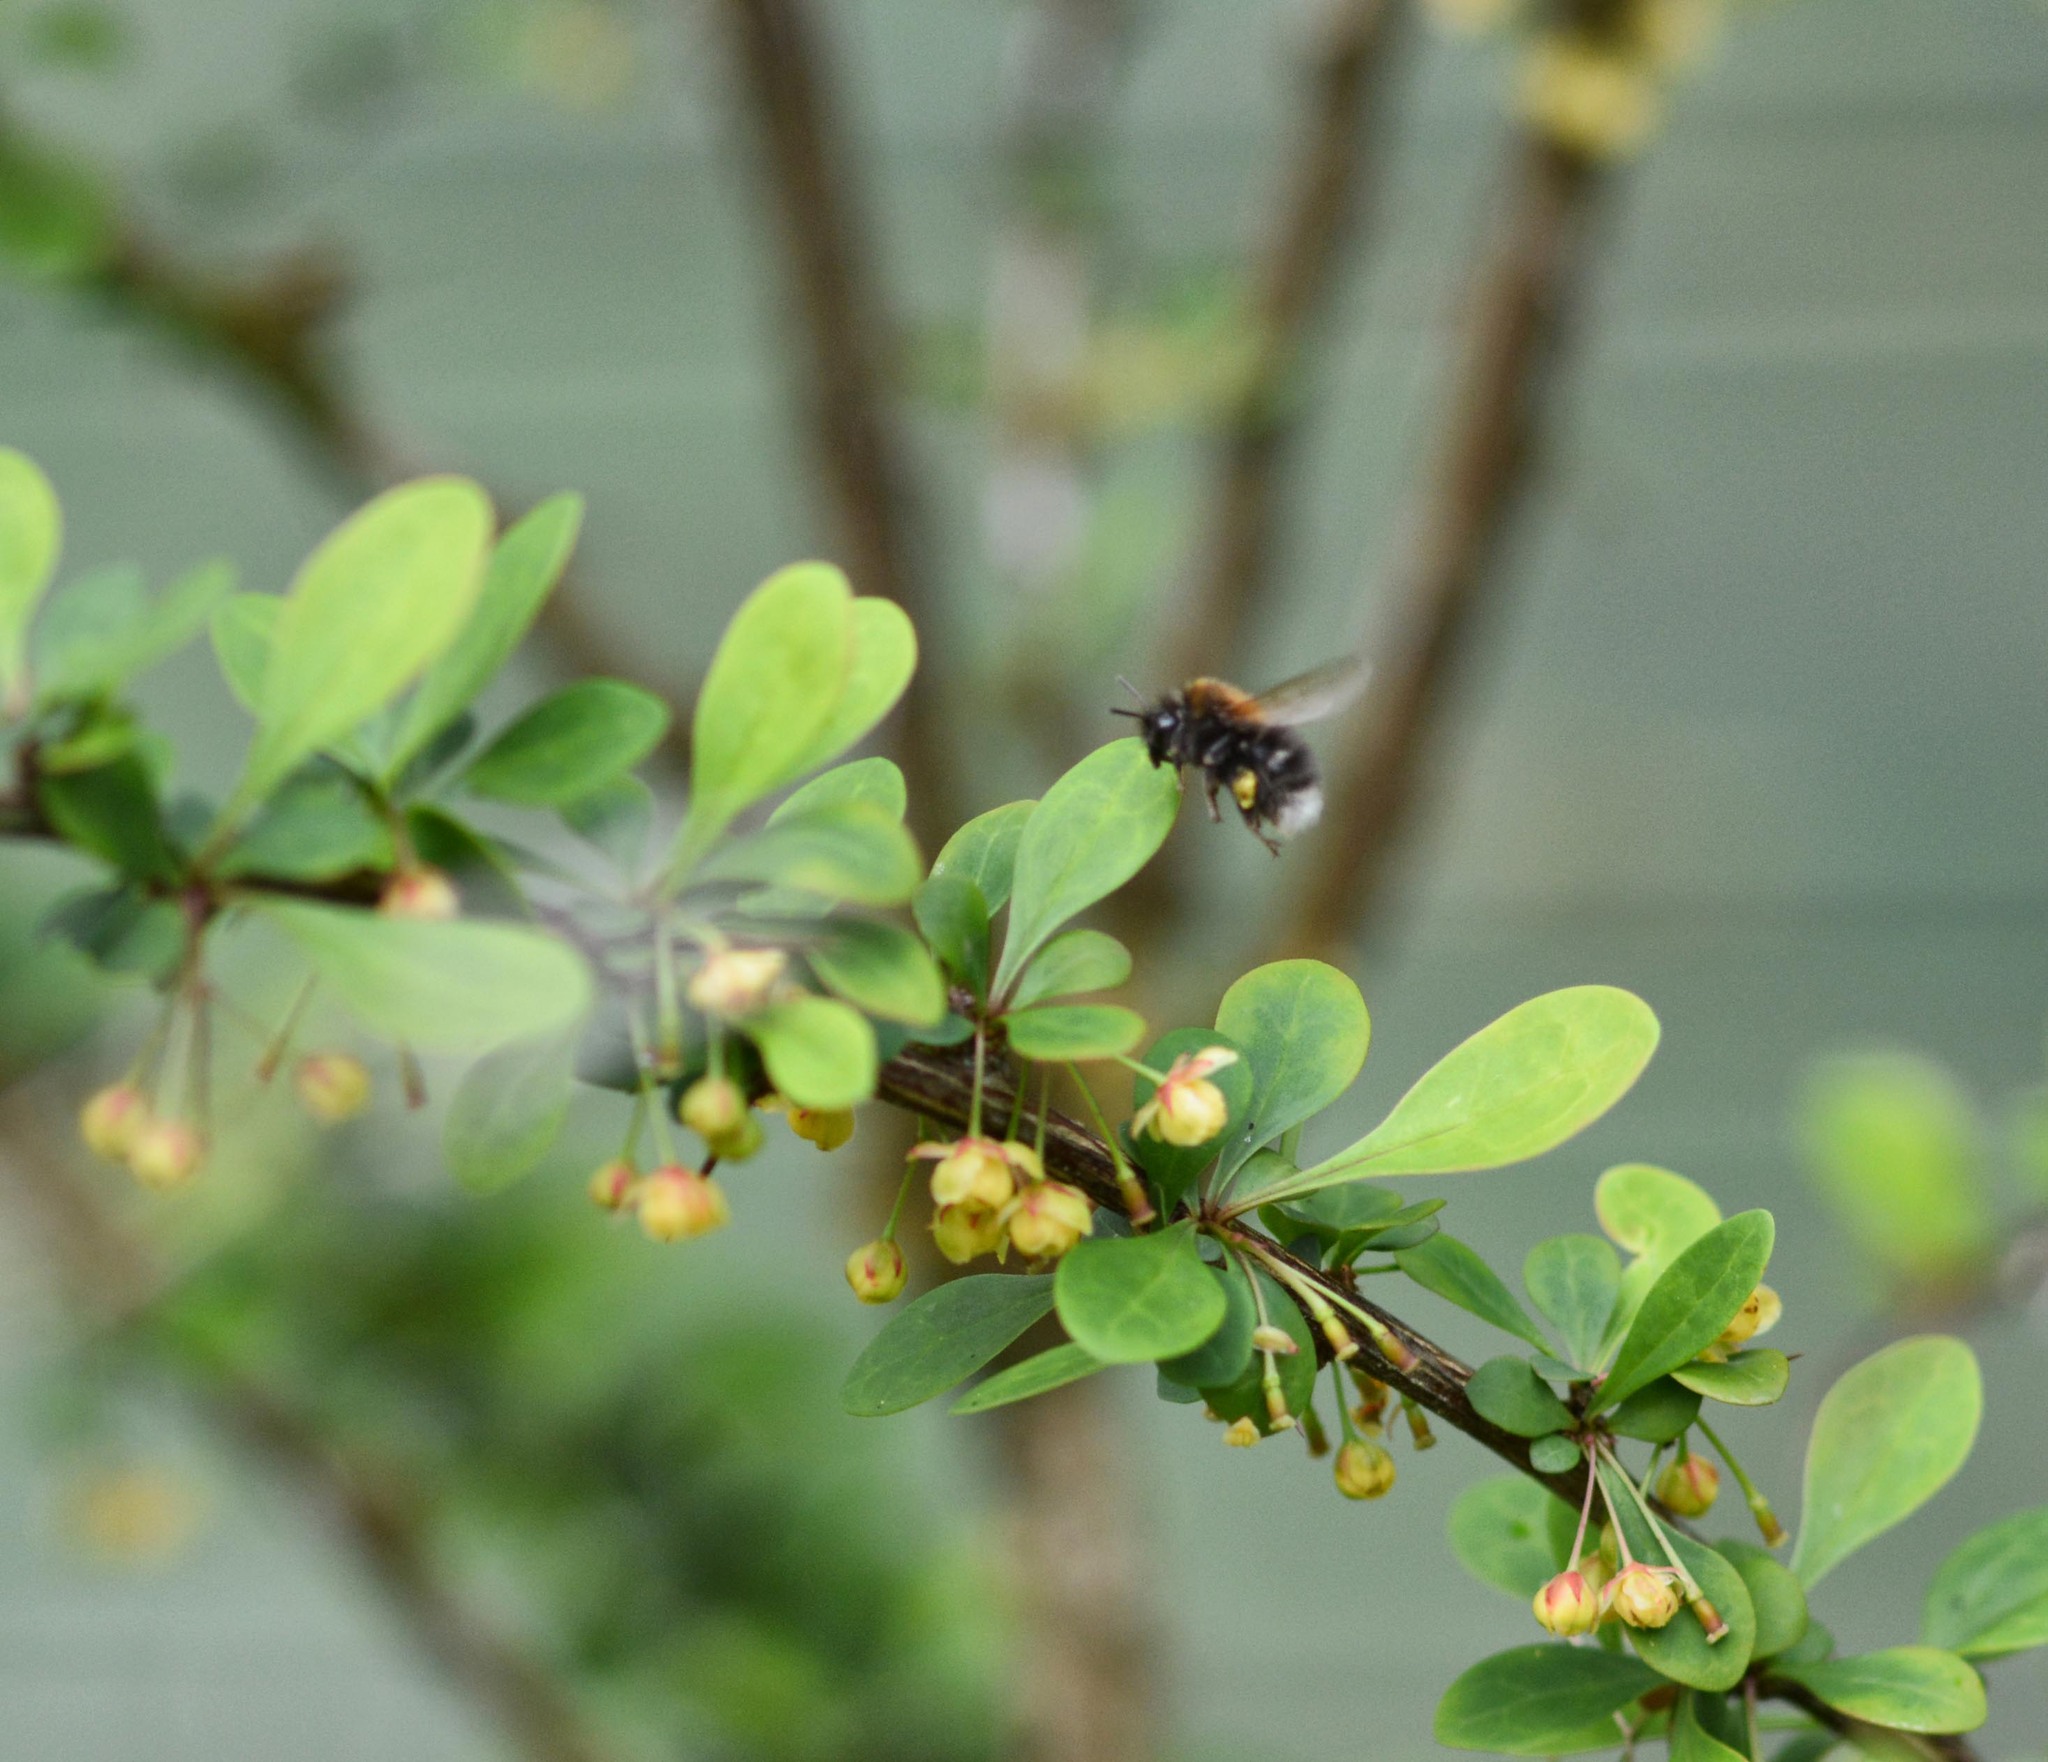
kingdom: Animalia
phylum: Arthropoda
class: Insecta
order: Hymenoptera
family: Apidae
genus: Bombus
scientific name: Bombus hypnorum
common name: New garden bumblebee
